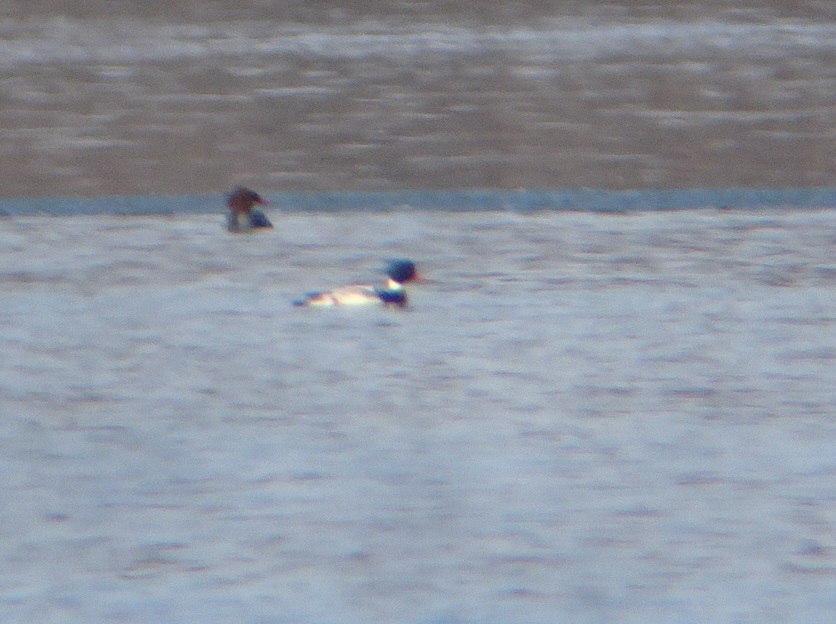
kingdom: Animalia
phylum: Chordata
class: Aves
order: Anseriformes
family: Anatidae
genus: Mergus
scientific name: Mergus serrator
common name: Red-breasted merganser
